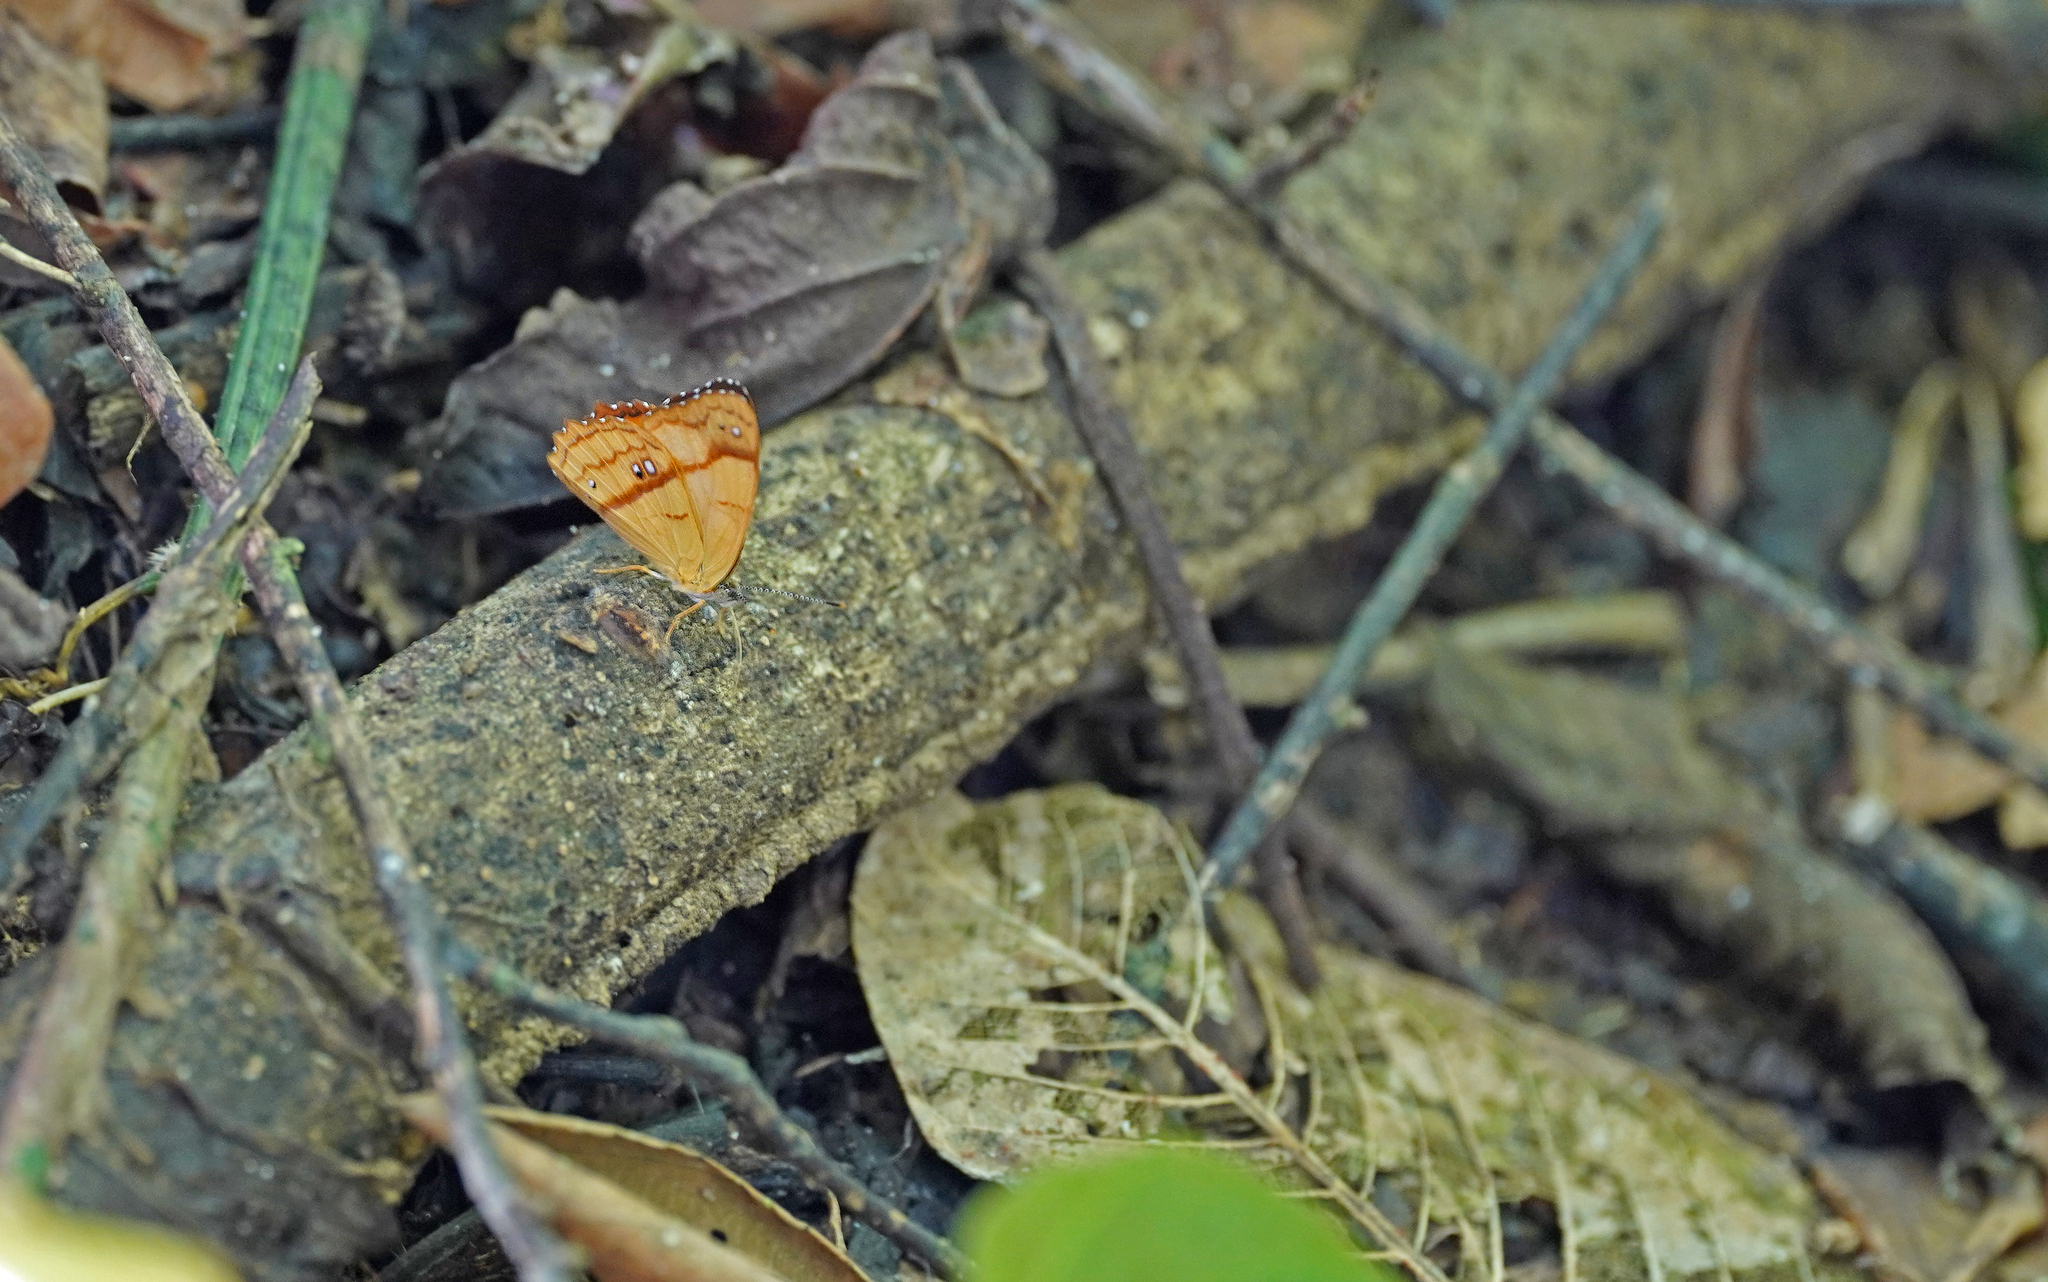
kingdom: Animalia
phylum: Arthropoda
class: Insecta
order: Lepidoptera
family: Nymphalidae
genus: Nica
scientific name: Nica flavilla
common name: Mandarin nica
